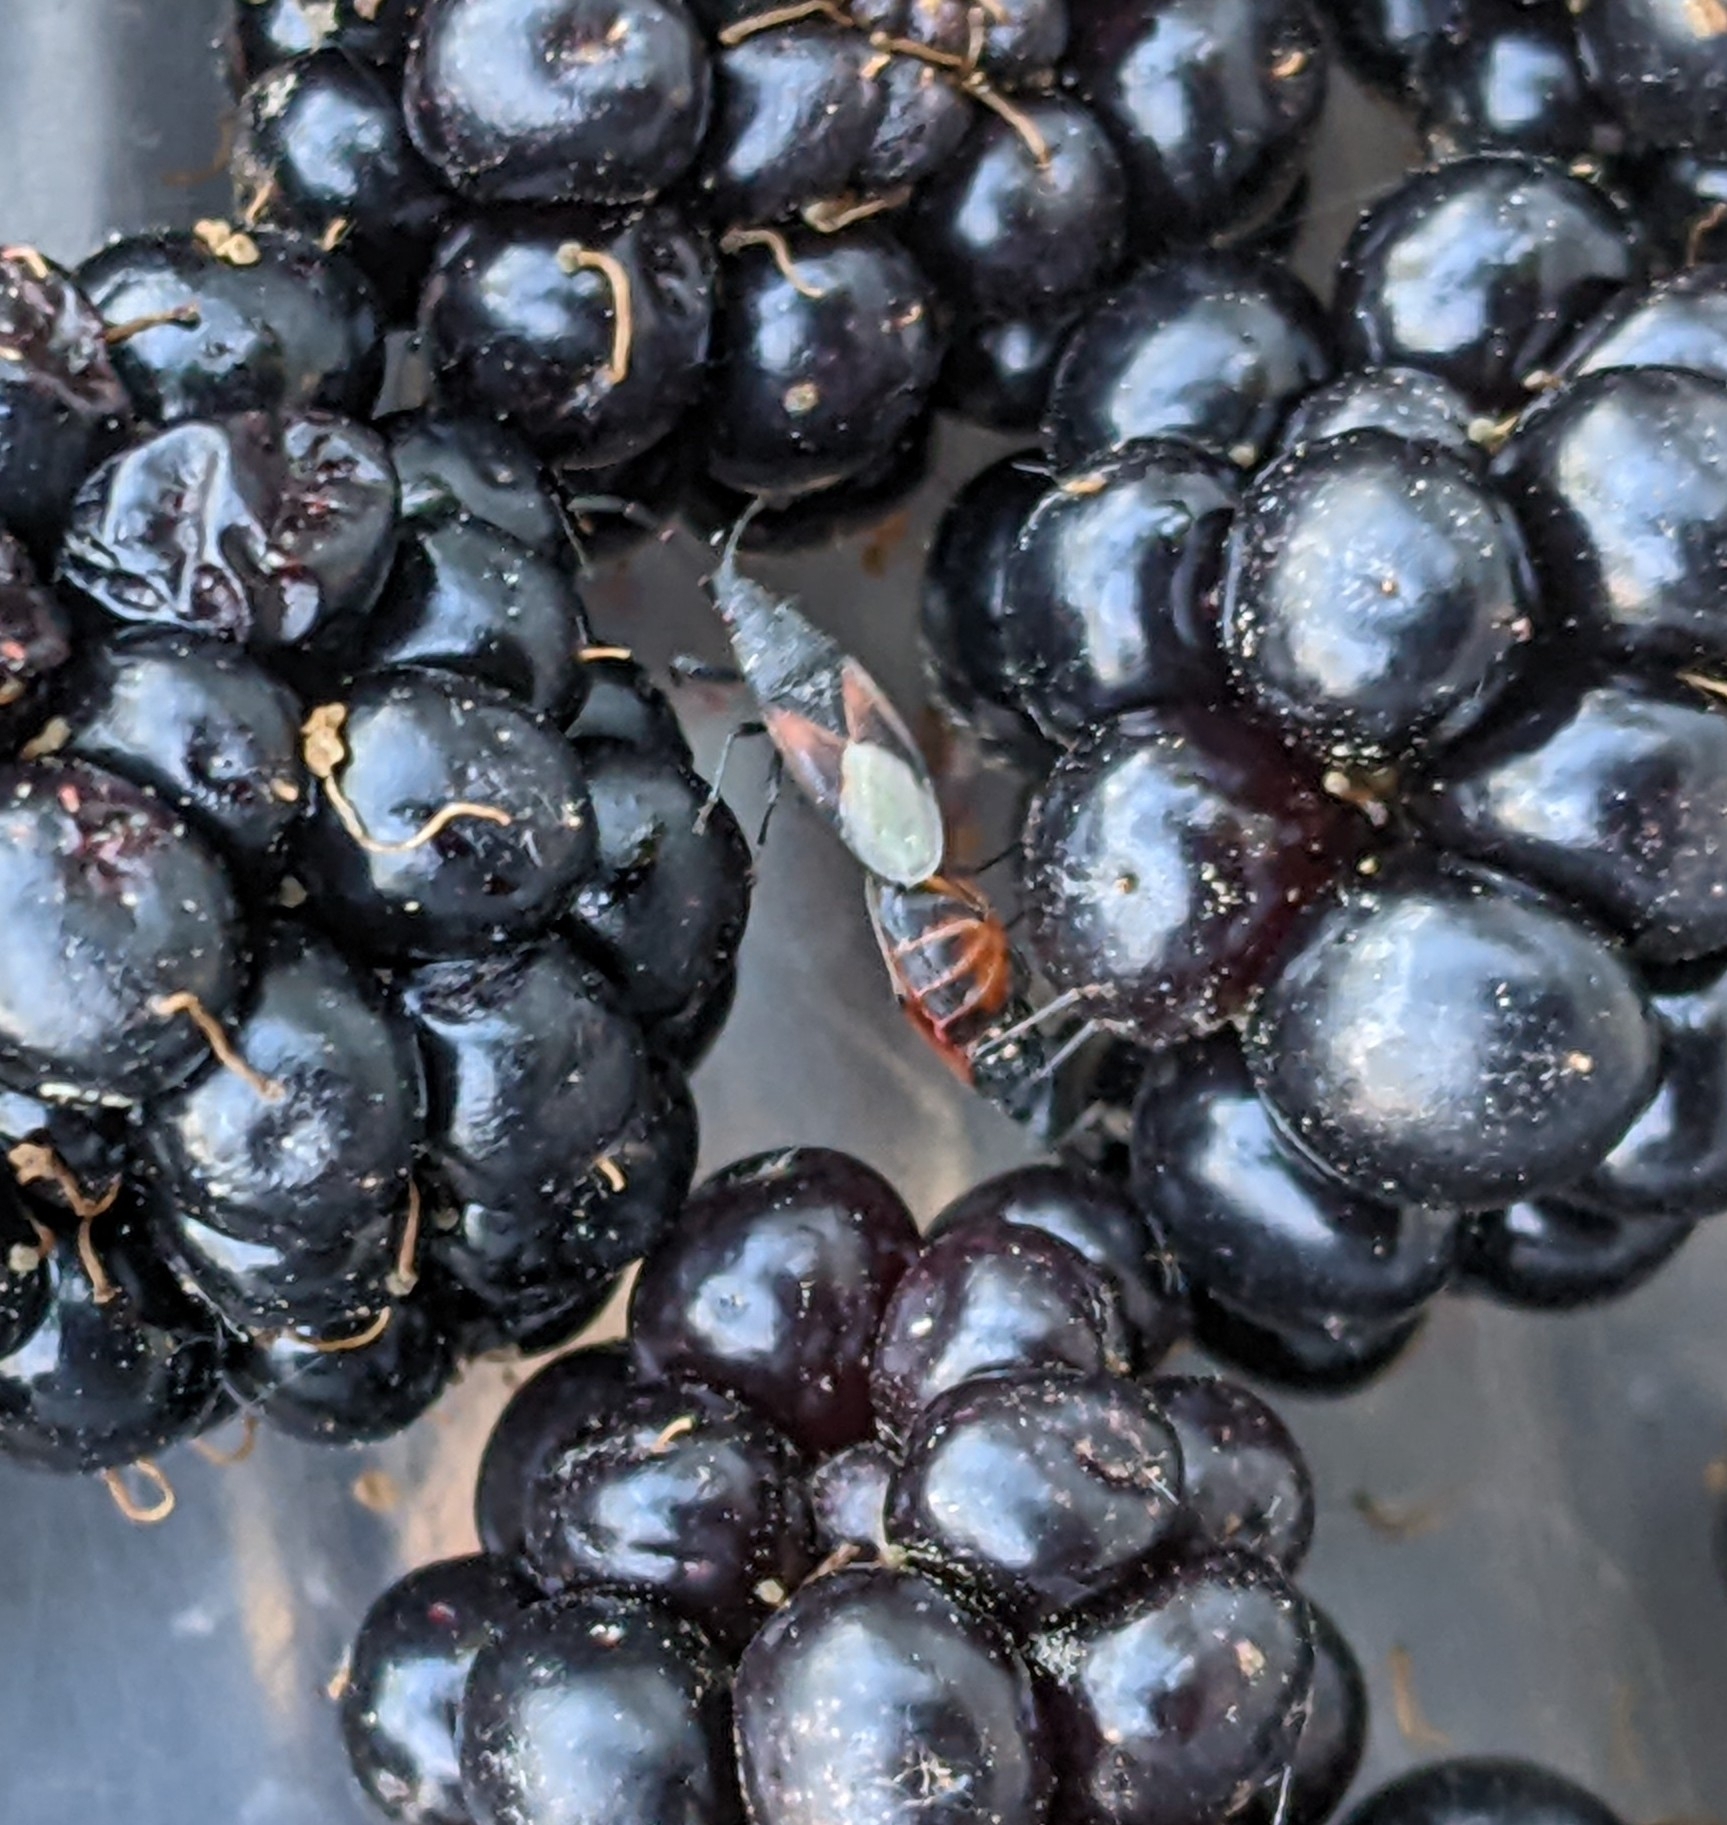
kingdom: Animalia
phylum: Arthropoda
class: Insecta
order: Hemiptera
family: Oxycarenidae
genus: Oxycarenus
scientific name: Oxycarenus lavaterae
